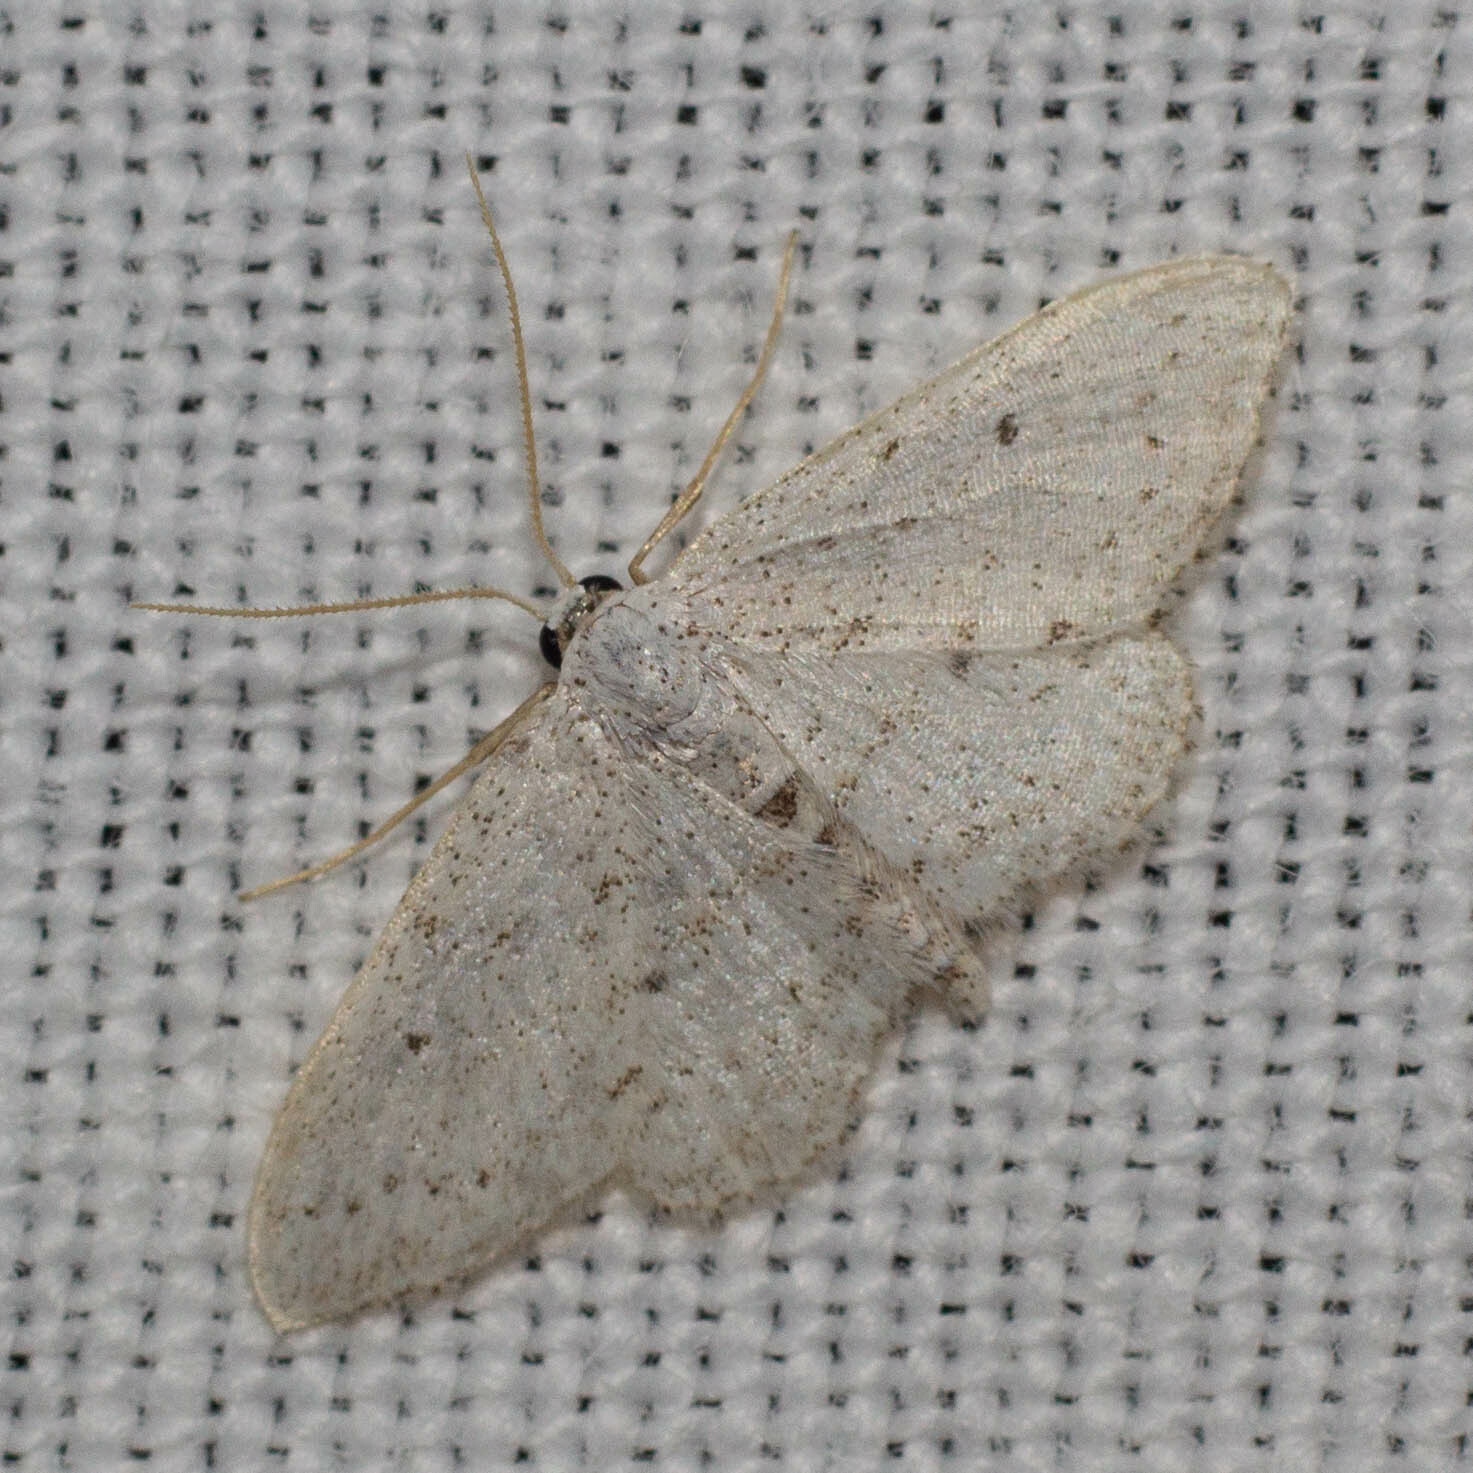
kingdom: Animalia
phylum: Arthropoda
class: Insecta
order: Lepidoptera
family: Geometridae
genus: Idaea
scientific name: Idaea seriata
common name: Small dusty wave
